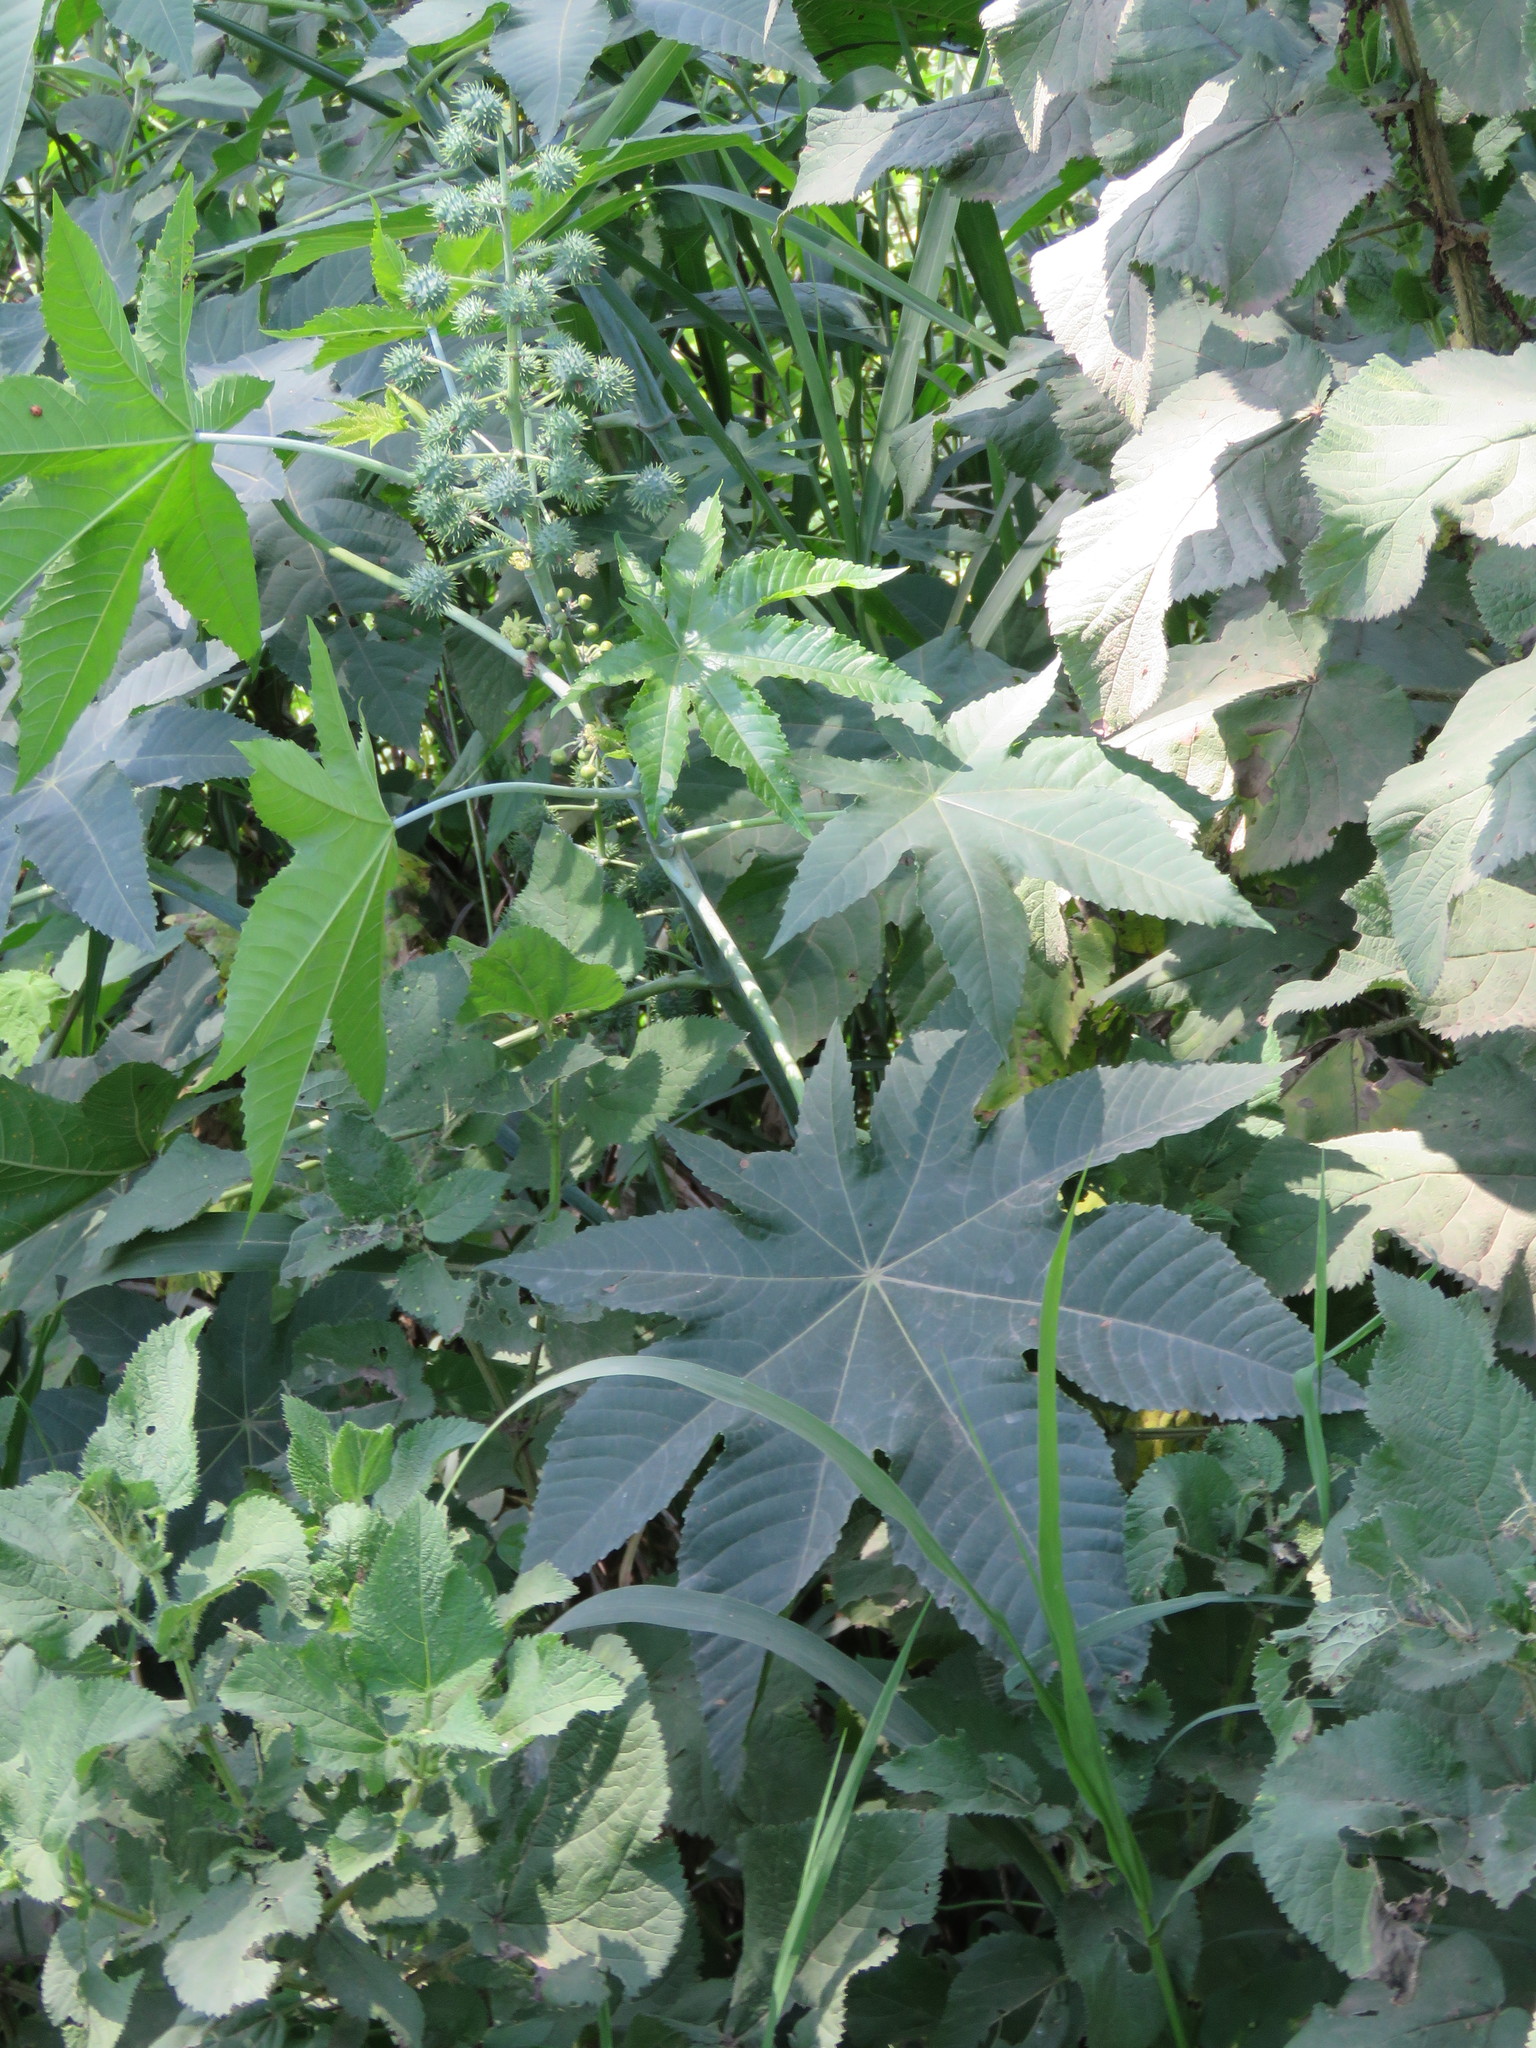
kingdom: Plantae
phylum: Tracheophyta
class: Magnoliopsida
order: Malpighiales
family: Euphorbiaceae
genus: Ricinus
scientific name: Ricinus communis
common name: Castor-oil-plant
